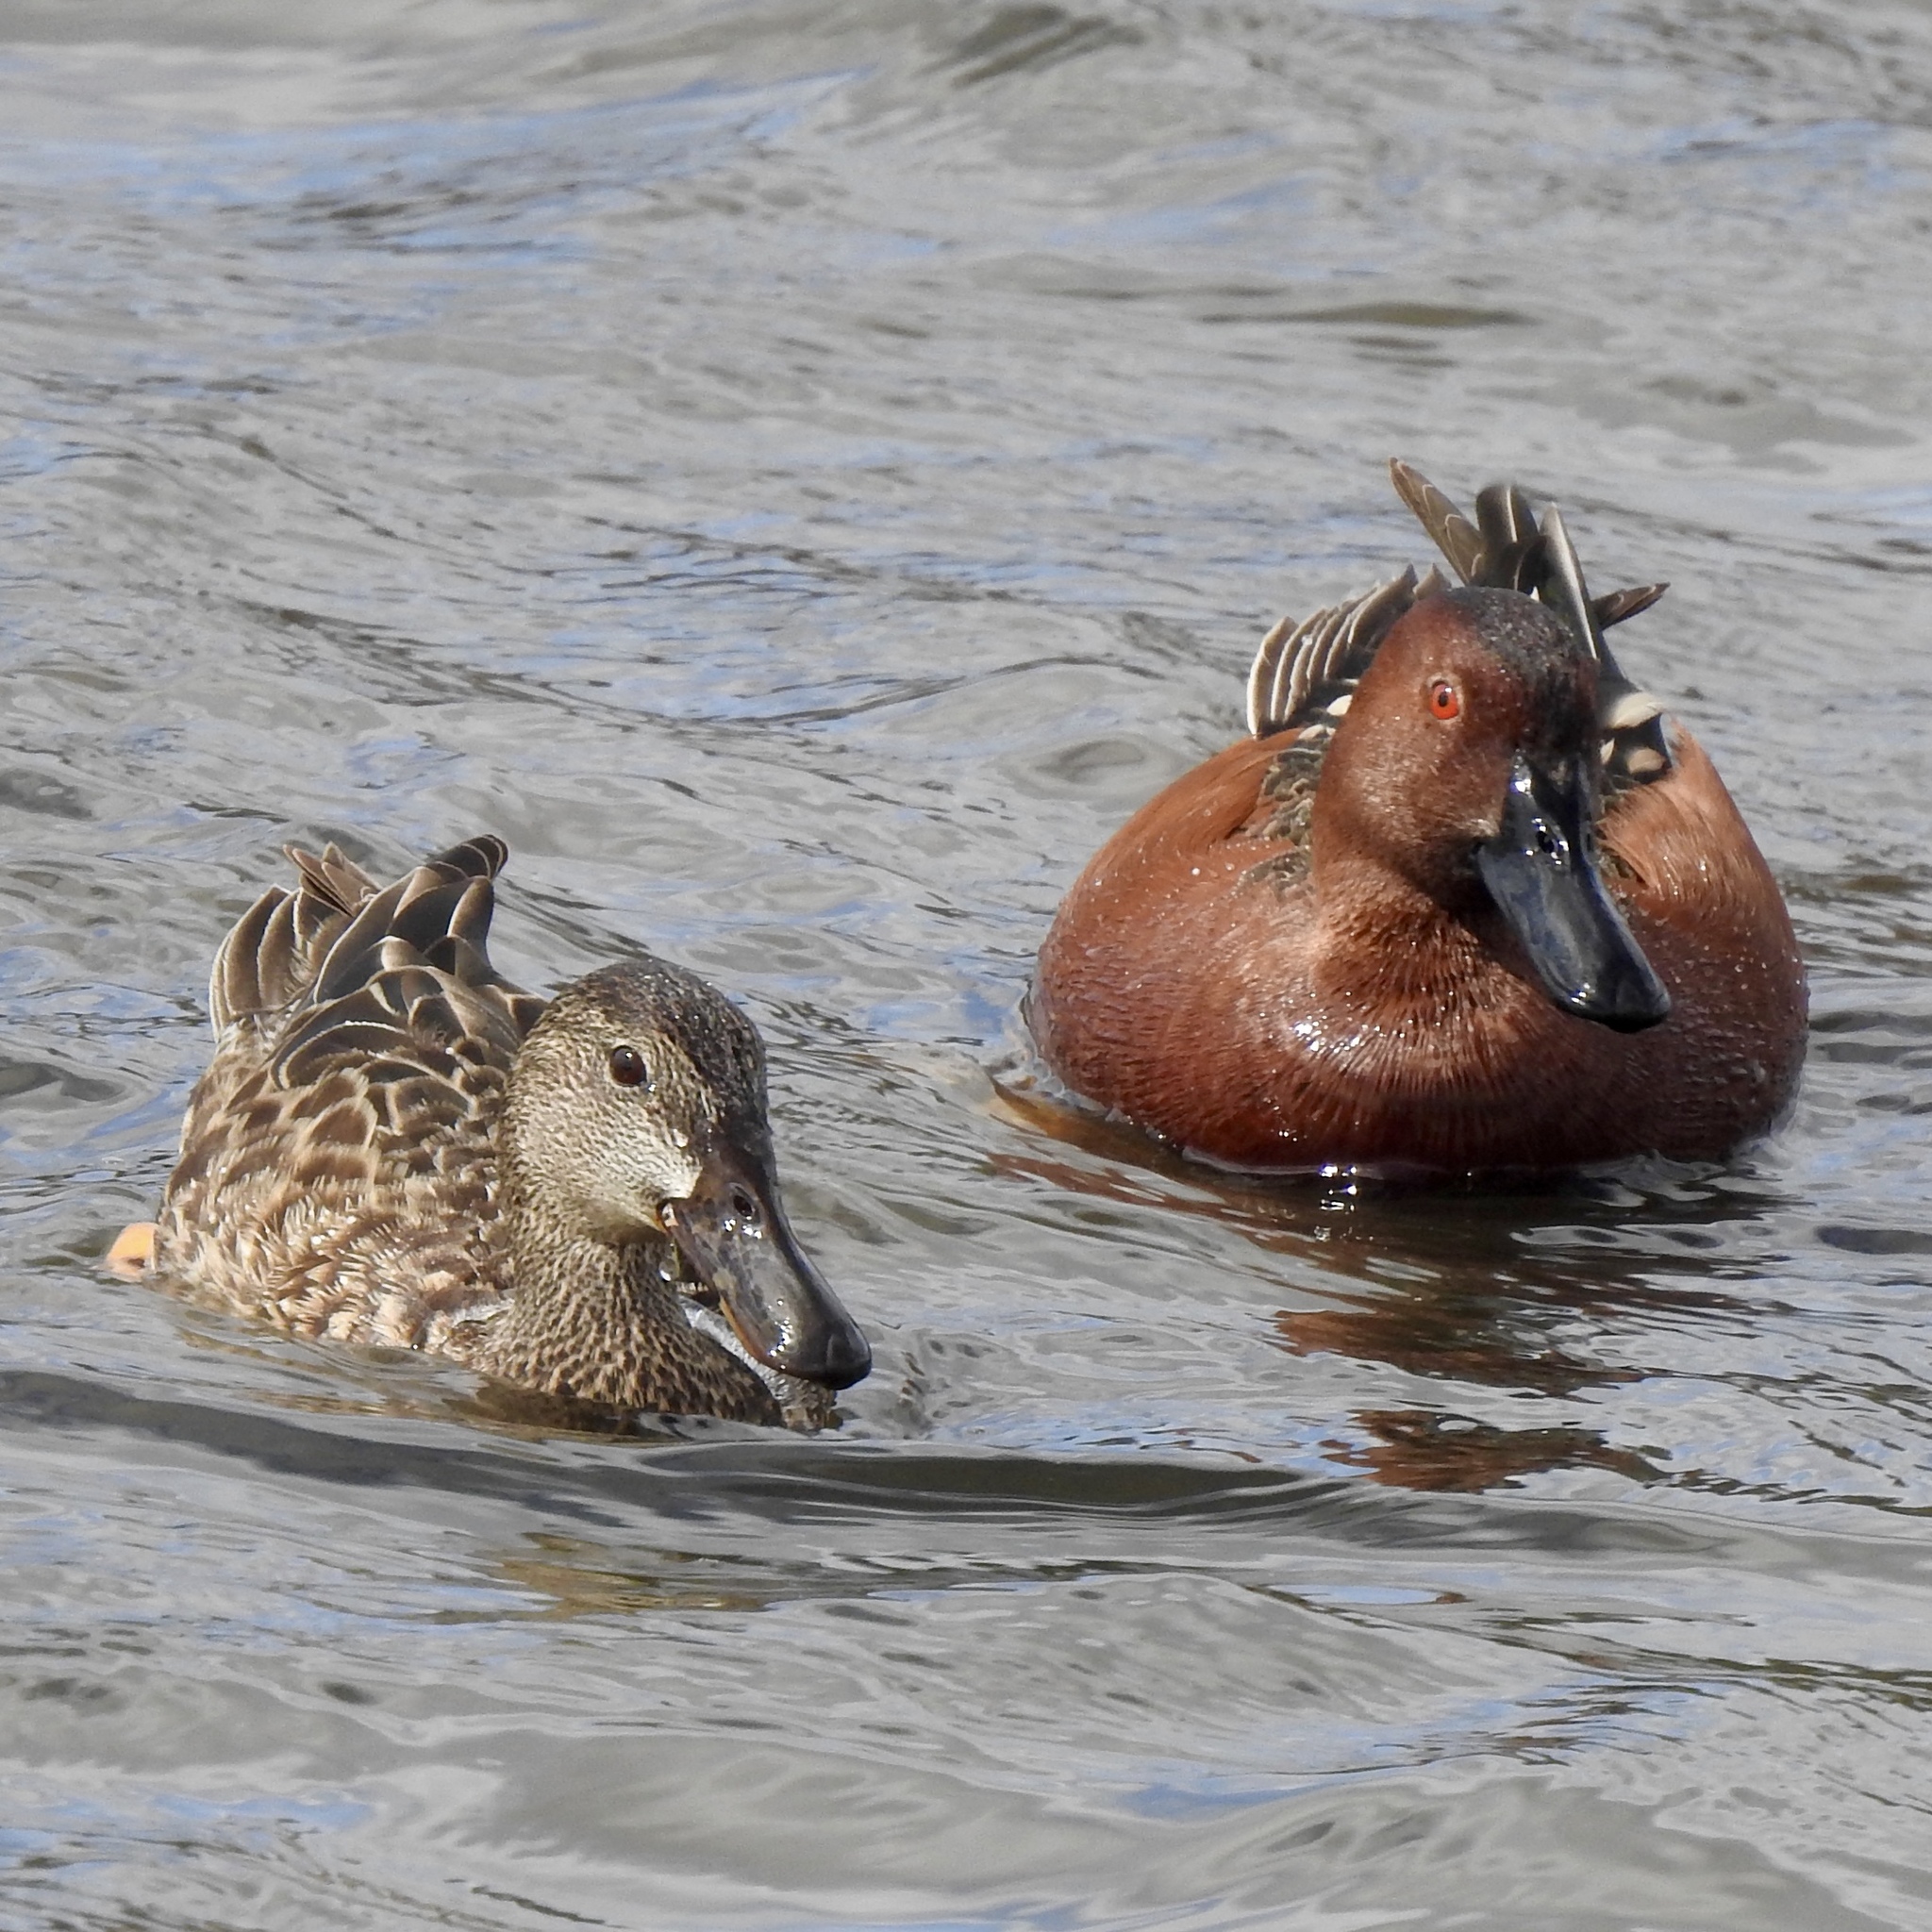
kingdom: Animalia
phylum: Chordata
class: Aves
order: Anseriformes
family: Anatidae
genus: Spatula
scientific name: Spatula cyanoptera
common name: Cinnamon teal
